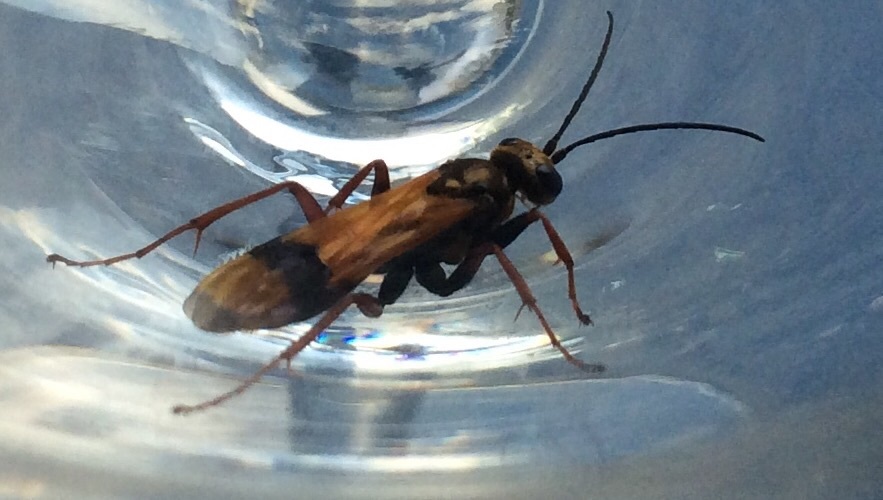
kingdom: Animalia
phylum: Arthropoda
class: Insecta
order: Hymenoptera
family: Pompilidae
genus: Sphictostethus
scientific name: Sphictostethus calvus
